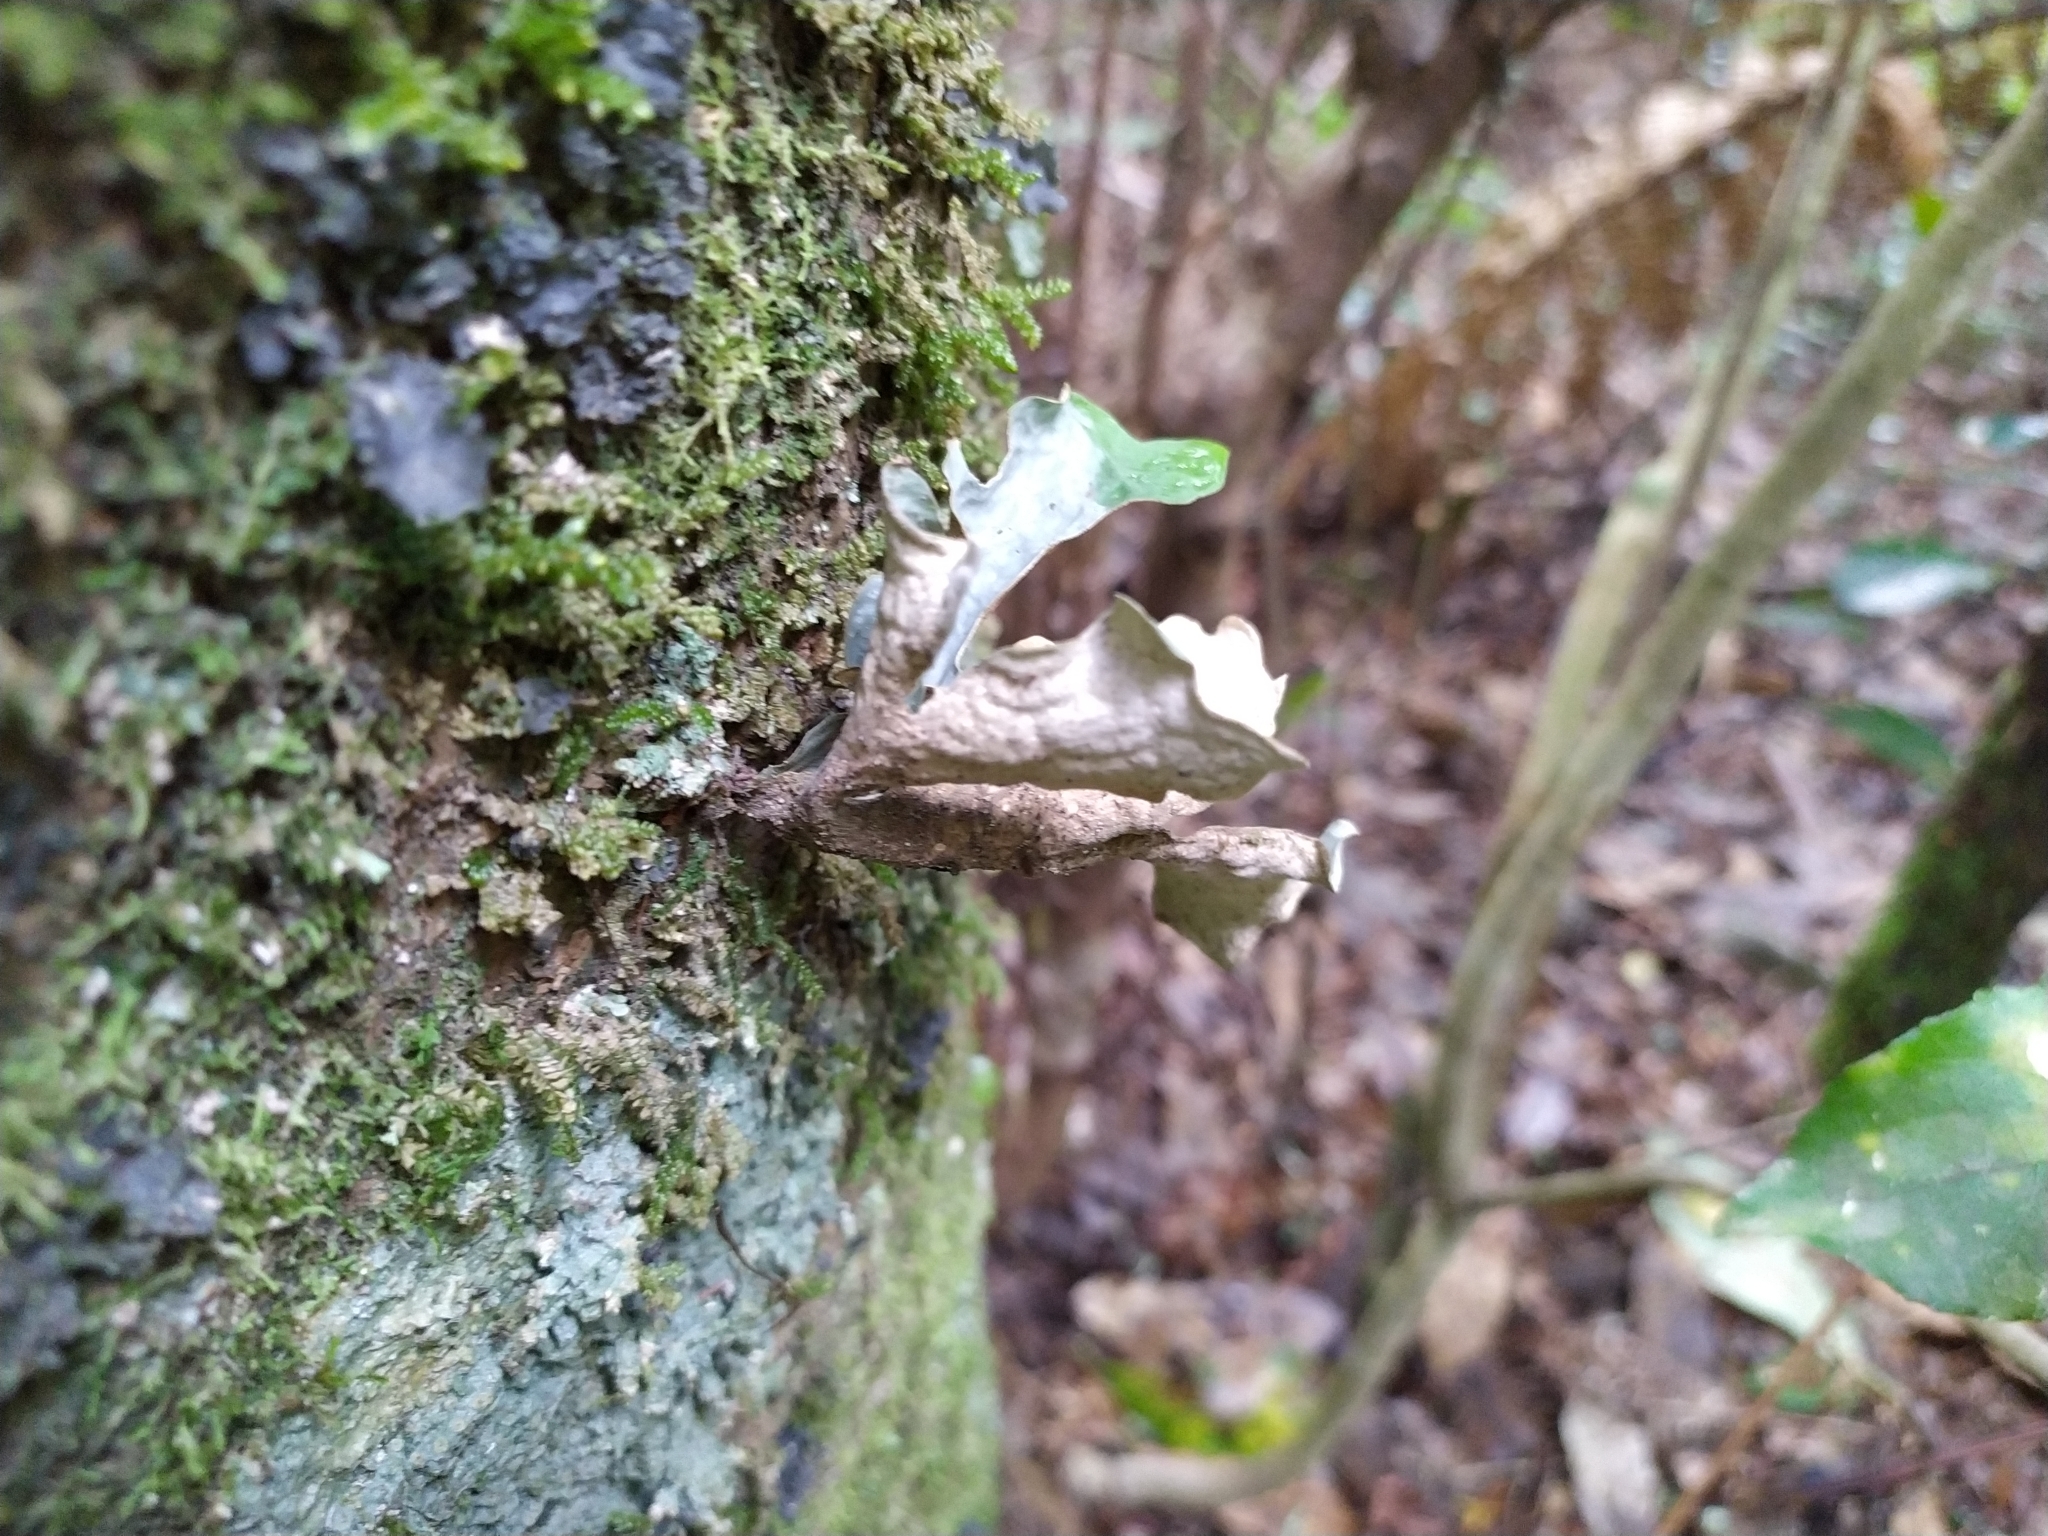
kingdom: Fungi
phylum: Ascomycota
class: Lecanoromycetes
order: Peltigerales
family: Lobariaceae
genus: Sticta
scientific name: Sticta latifrons
